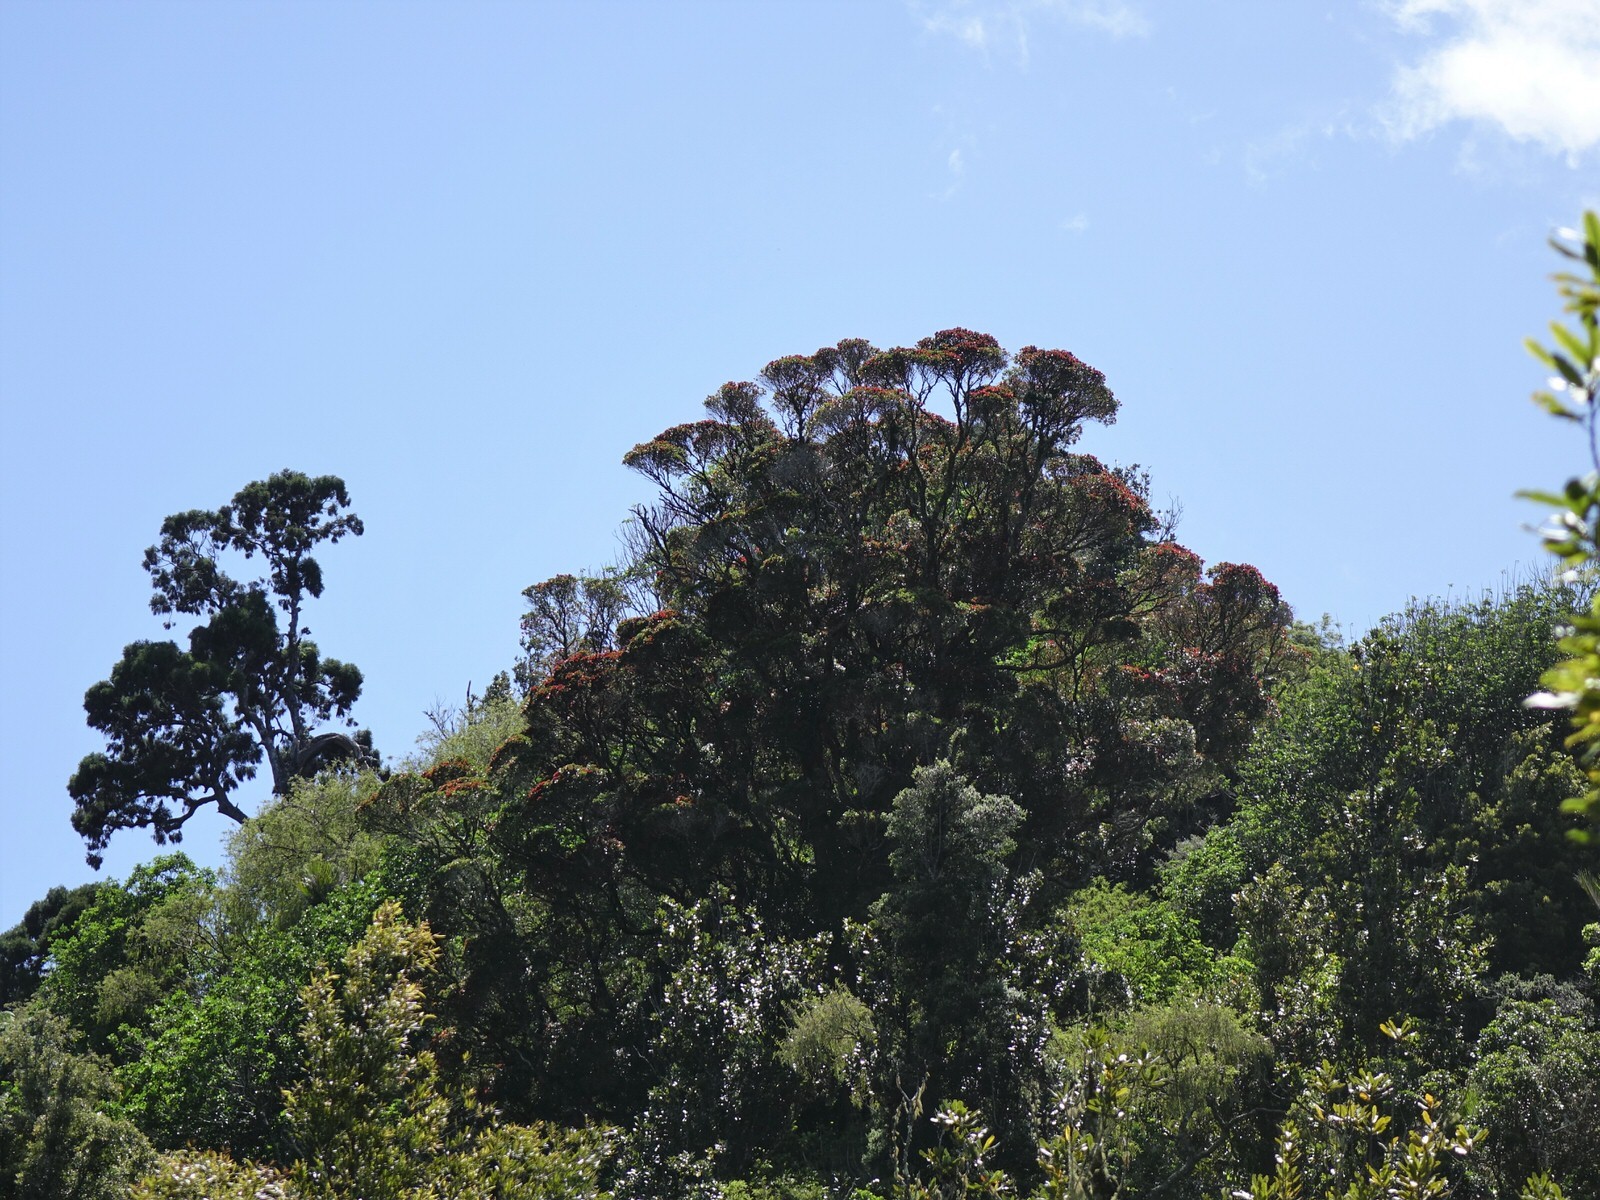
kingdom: Plantae
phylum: Tracheophyta
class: Magnoliopsida
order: Myrtales
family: Myrtaceae
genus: Metrosideros
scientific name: Metrosideros robusta
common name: Northern rata
